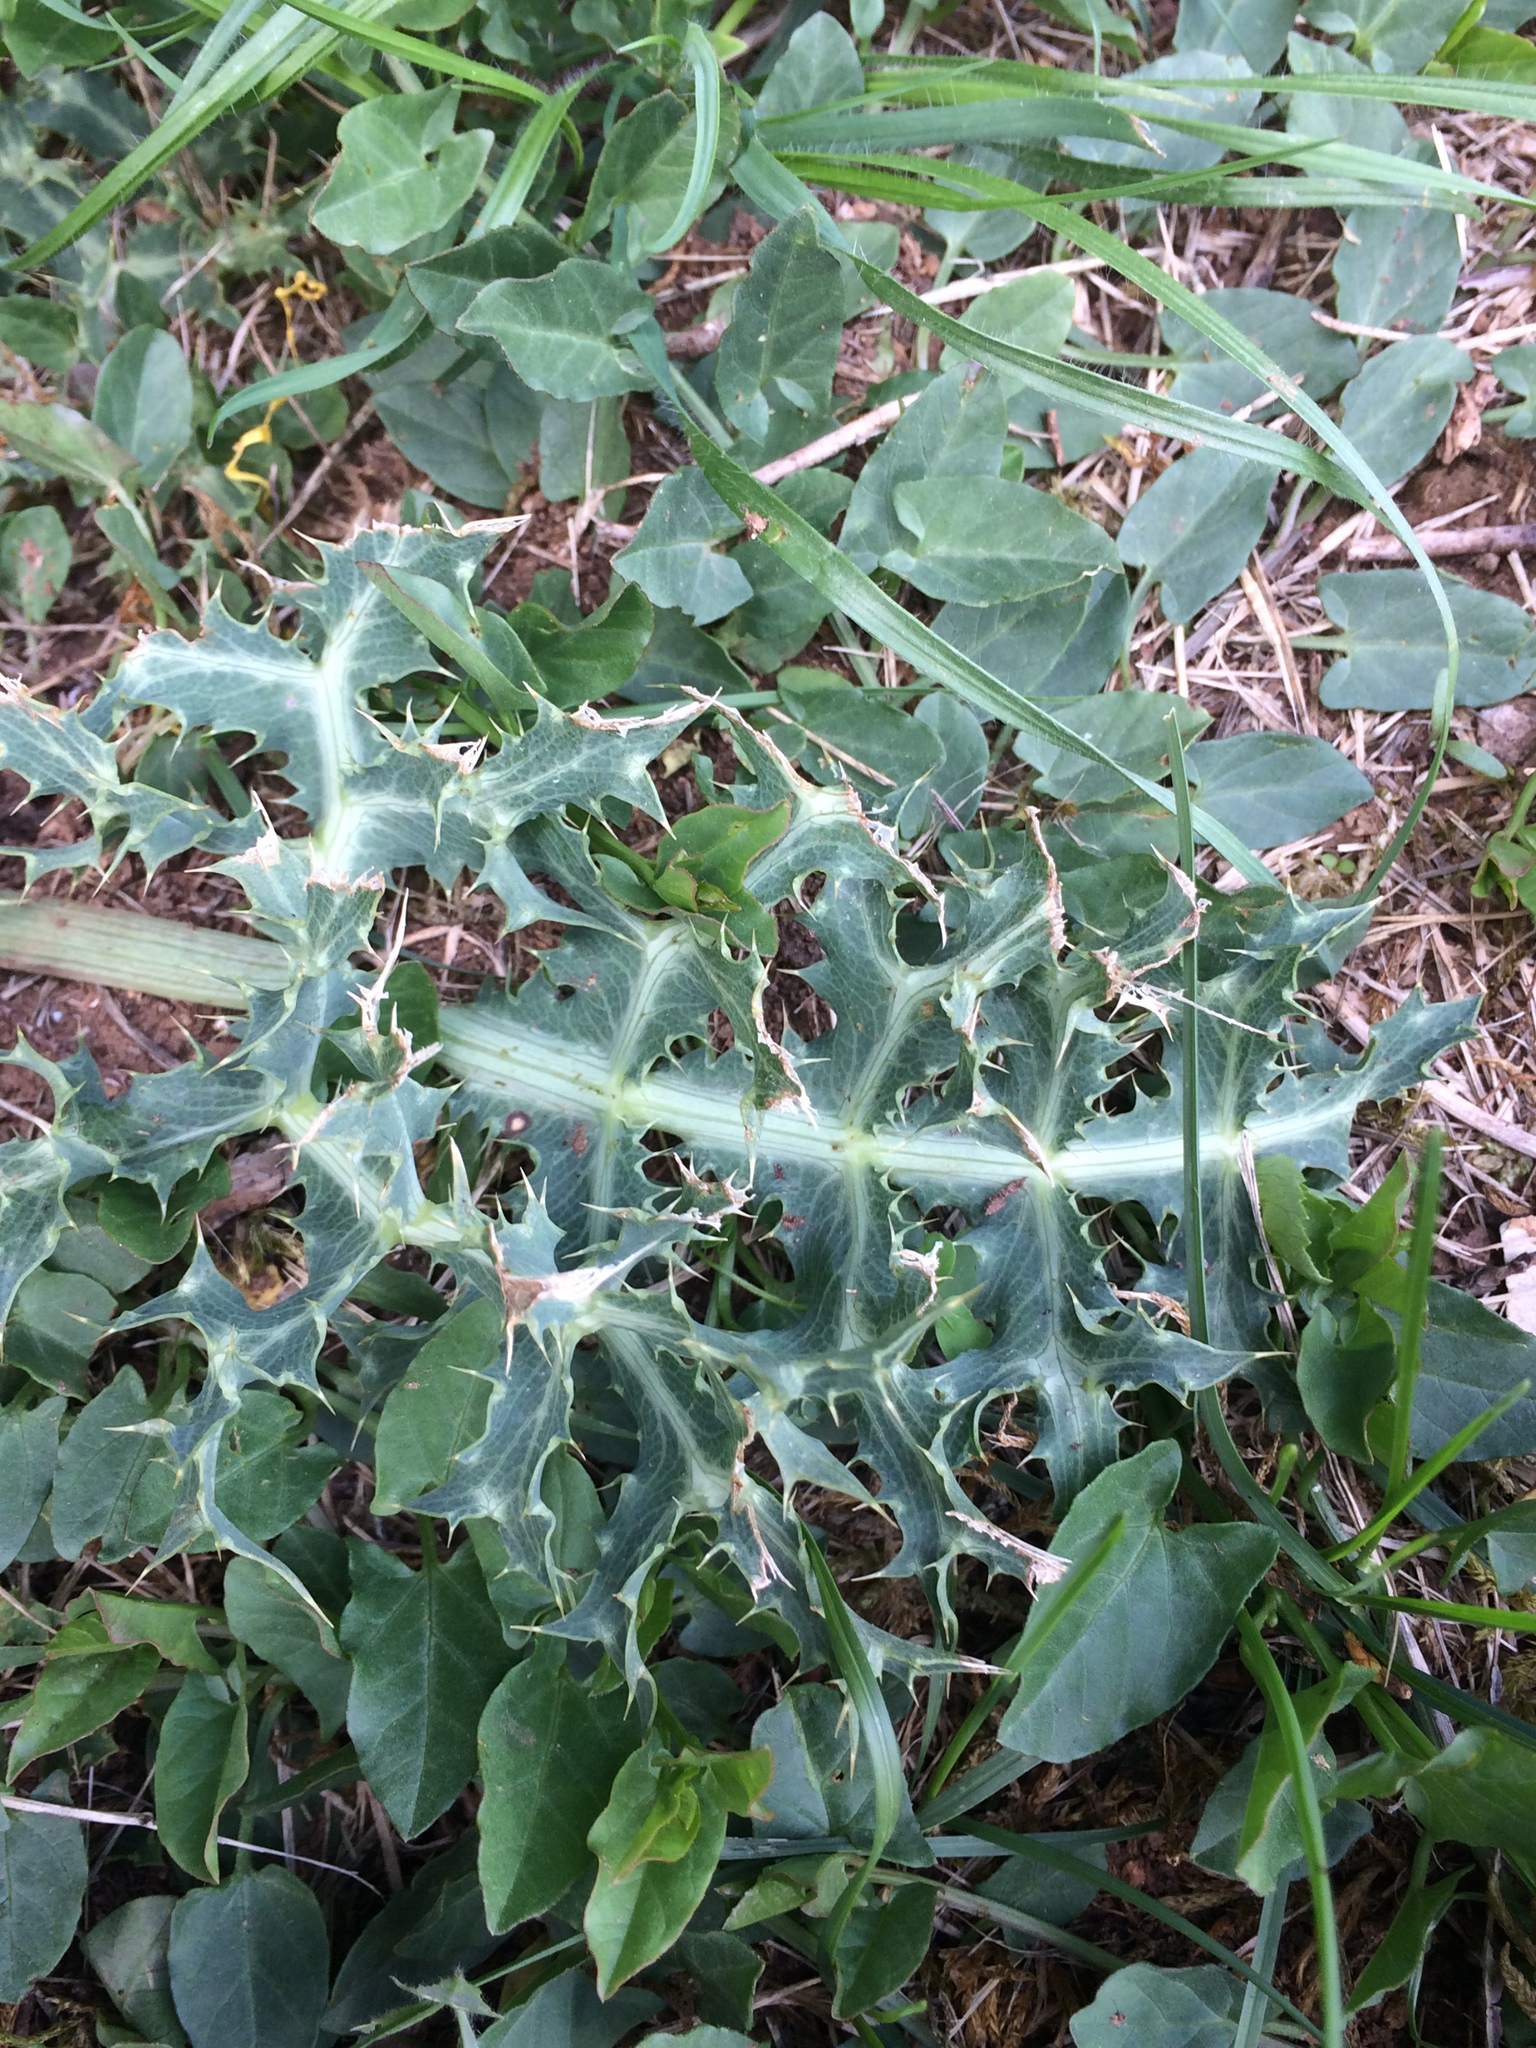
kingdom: Plantae
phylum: Tracheophyta
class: Magnoliopsida
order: Apiales
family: Apiaceae
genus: Eryngium
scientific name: Eryngium campestre
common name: Field eryngo
